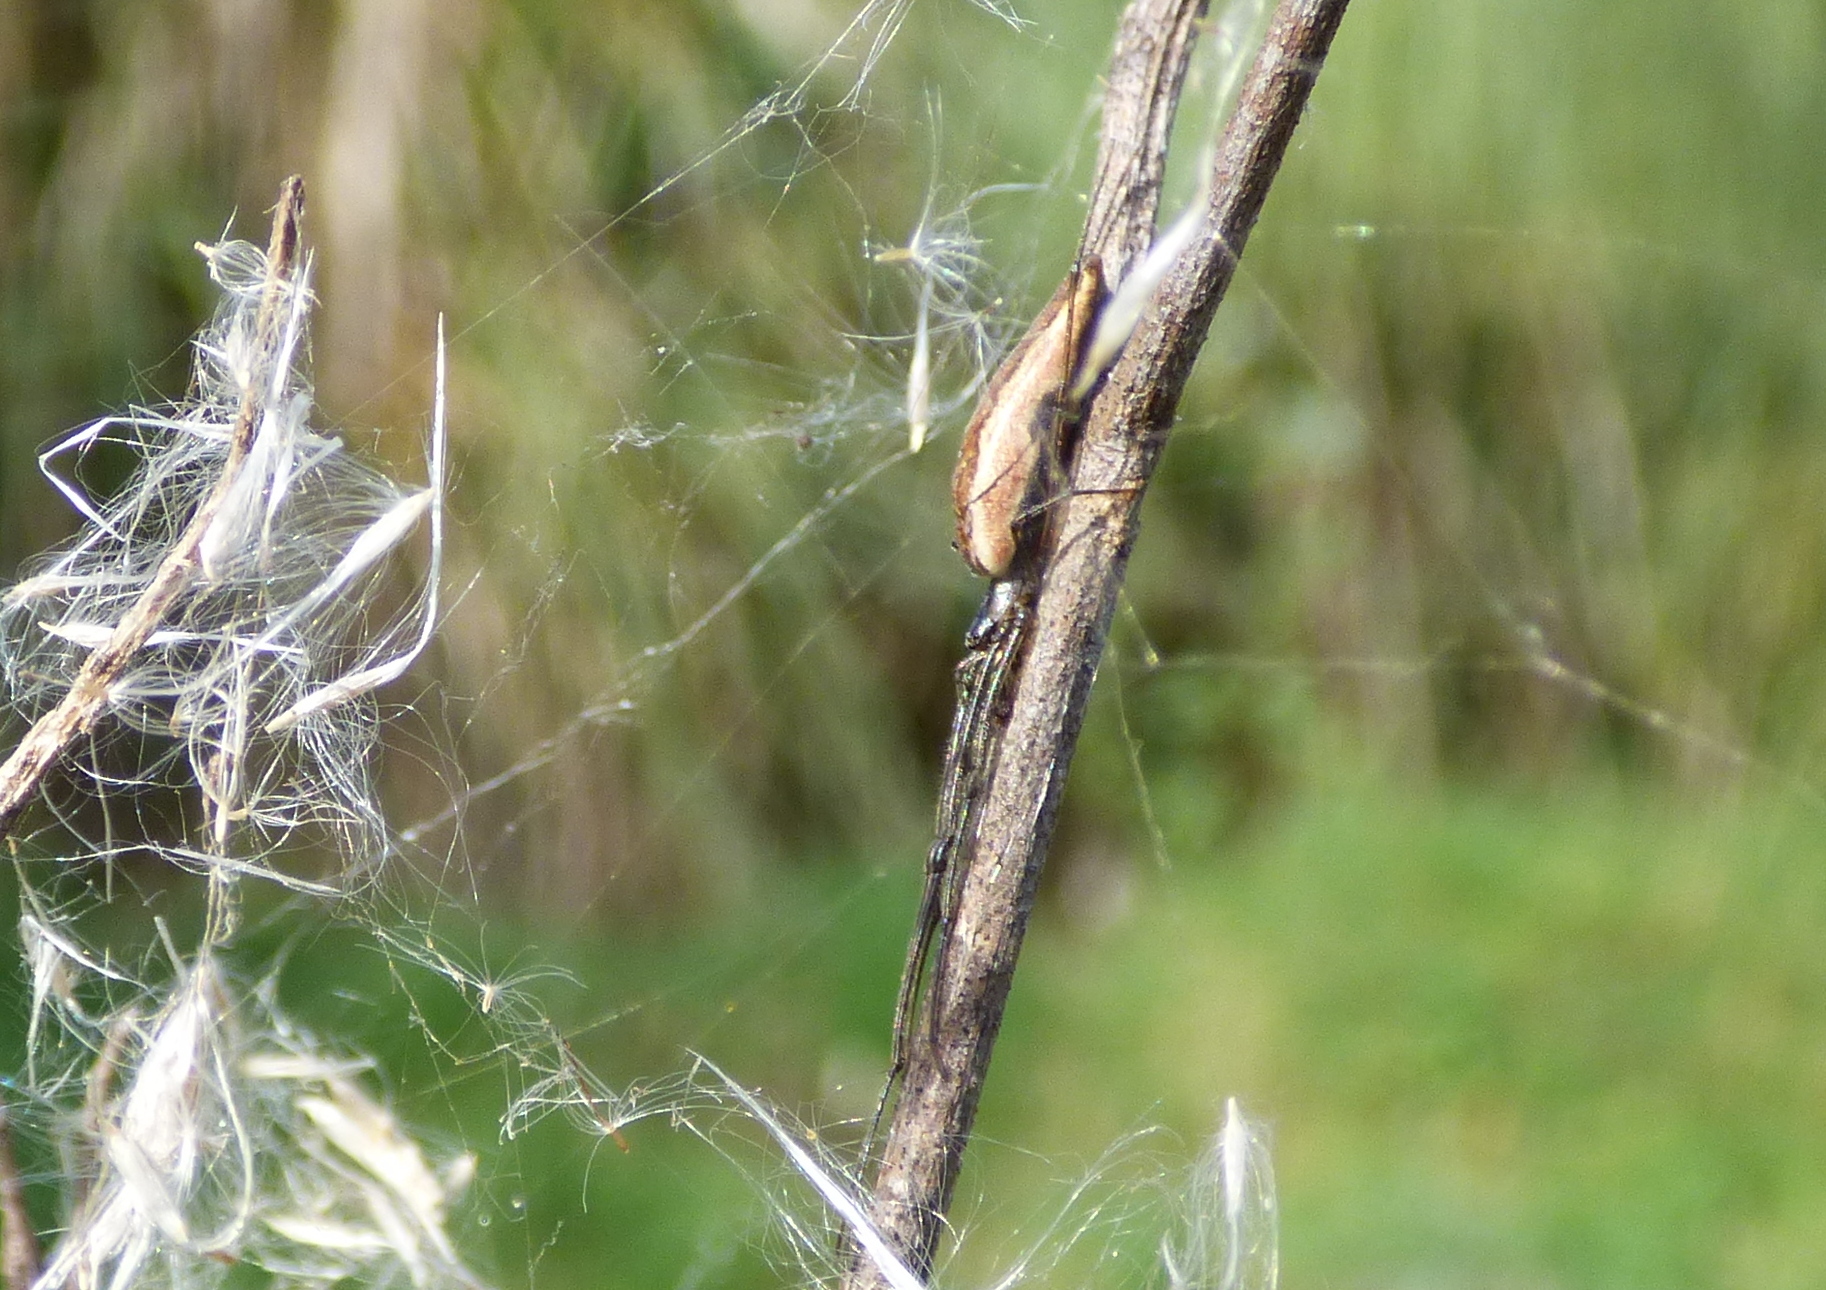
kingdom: Animalia
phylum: Arthropoda
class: Arachnida
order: Araneae
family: Tetragnathidae
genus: Tetragnatha
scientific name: Tetragnatha
